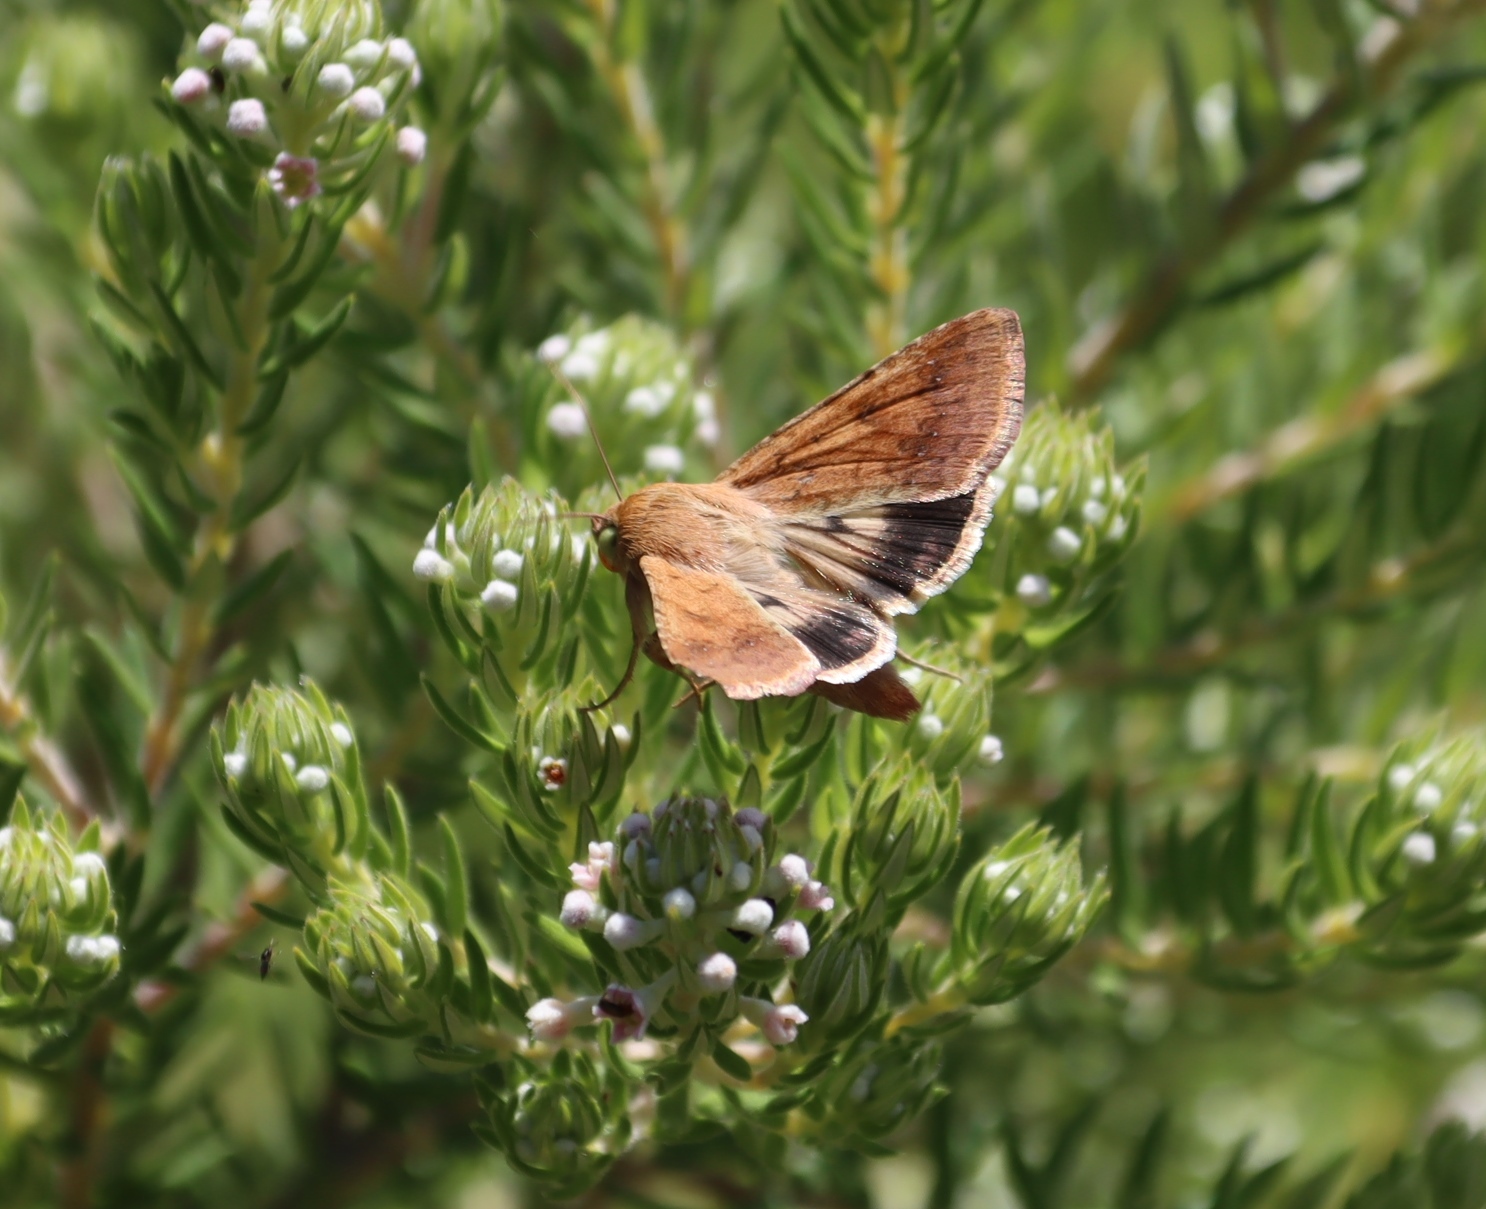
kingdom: Animalia
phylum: Arthropoda
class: Insecta
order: Lepidoptera
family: Noctuidae
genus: Helicoverpa
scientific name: Helicoverpa armigera
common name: Cotton bollworm
